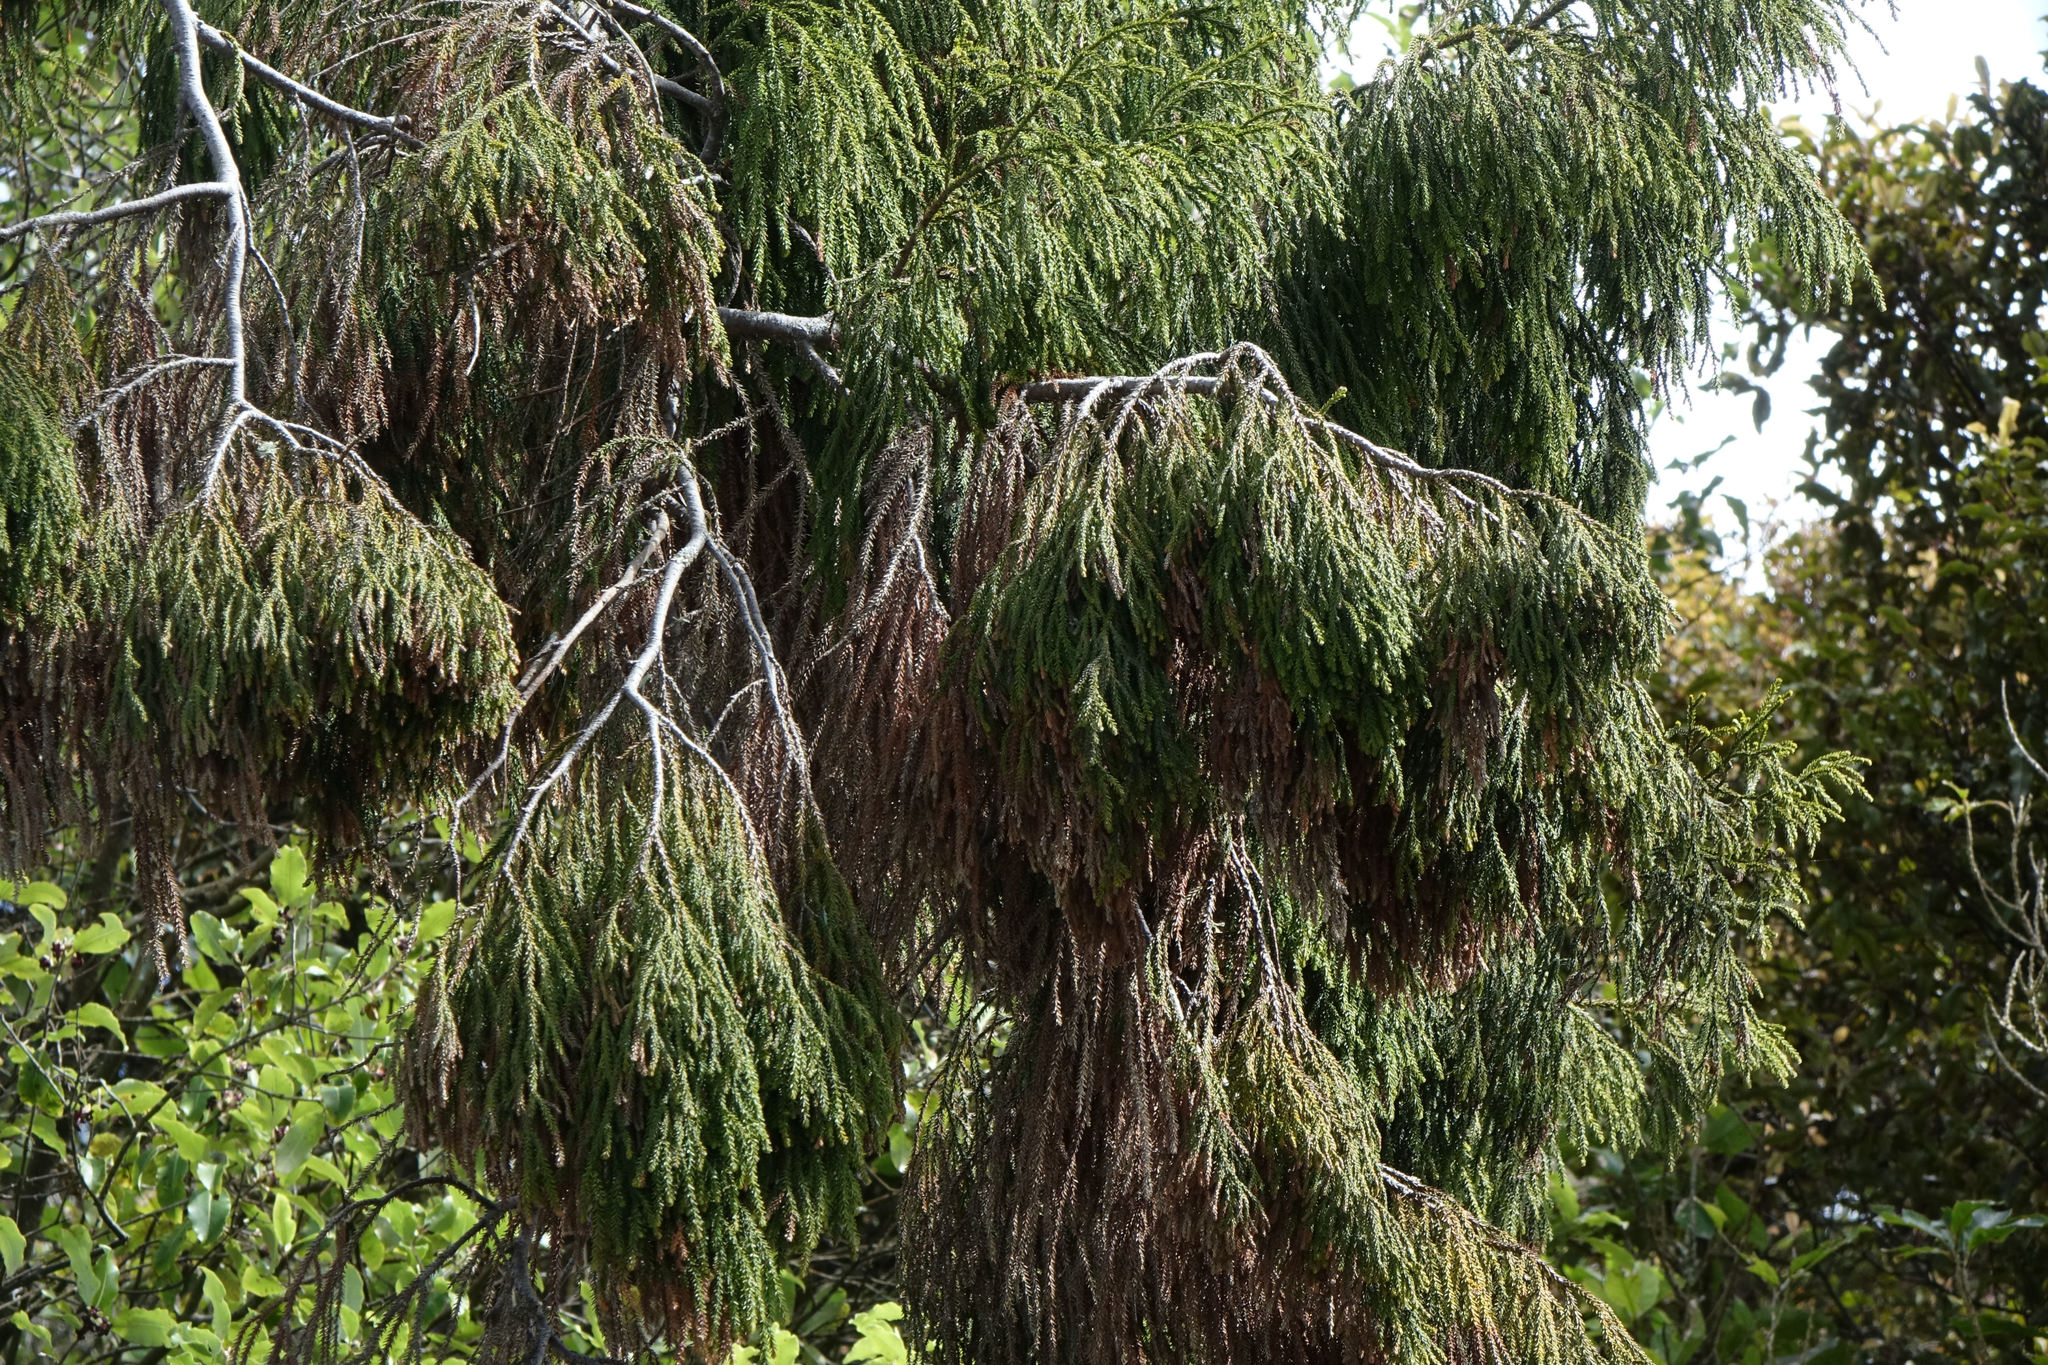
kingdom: Plantae
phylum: Tracheophyta
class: Pinopsida
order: Pinales
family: Podocarpaceae
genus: Dacrydium
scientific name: Dacrydium cupressinum
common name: Red pine
